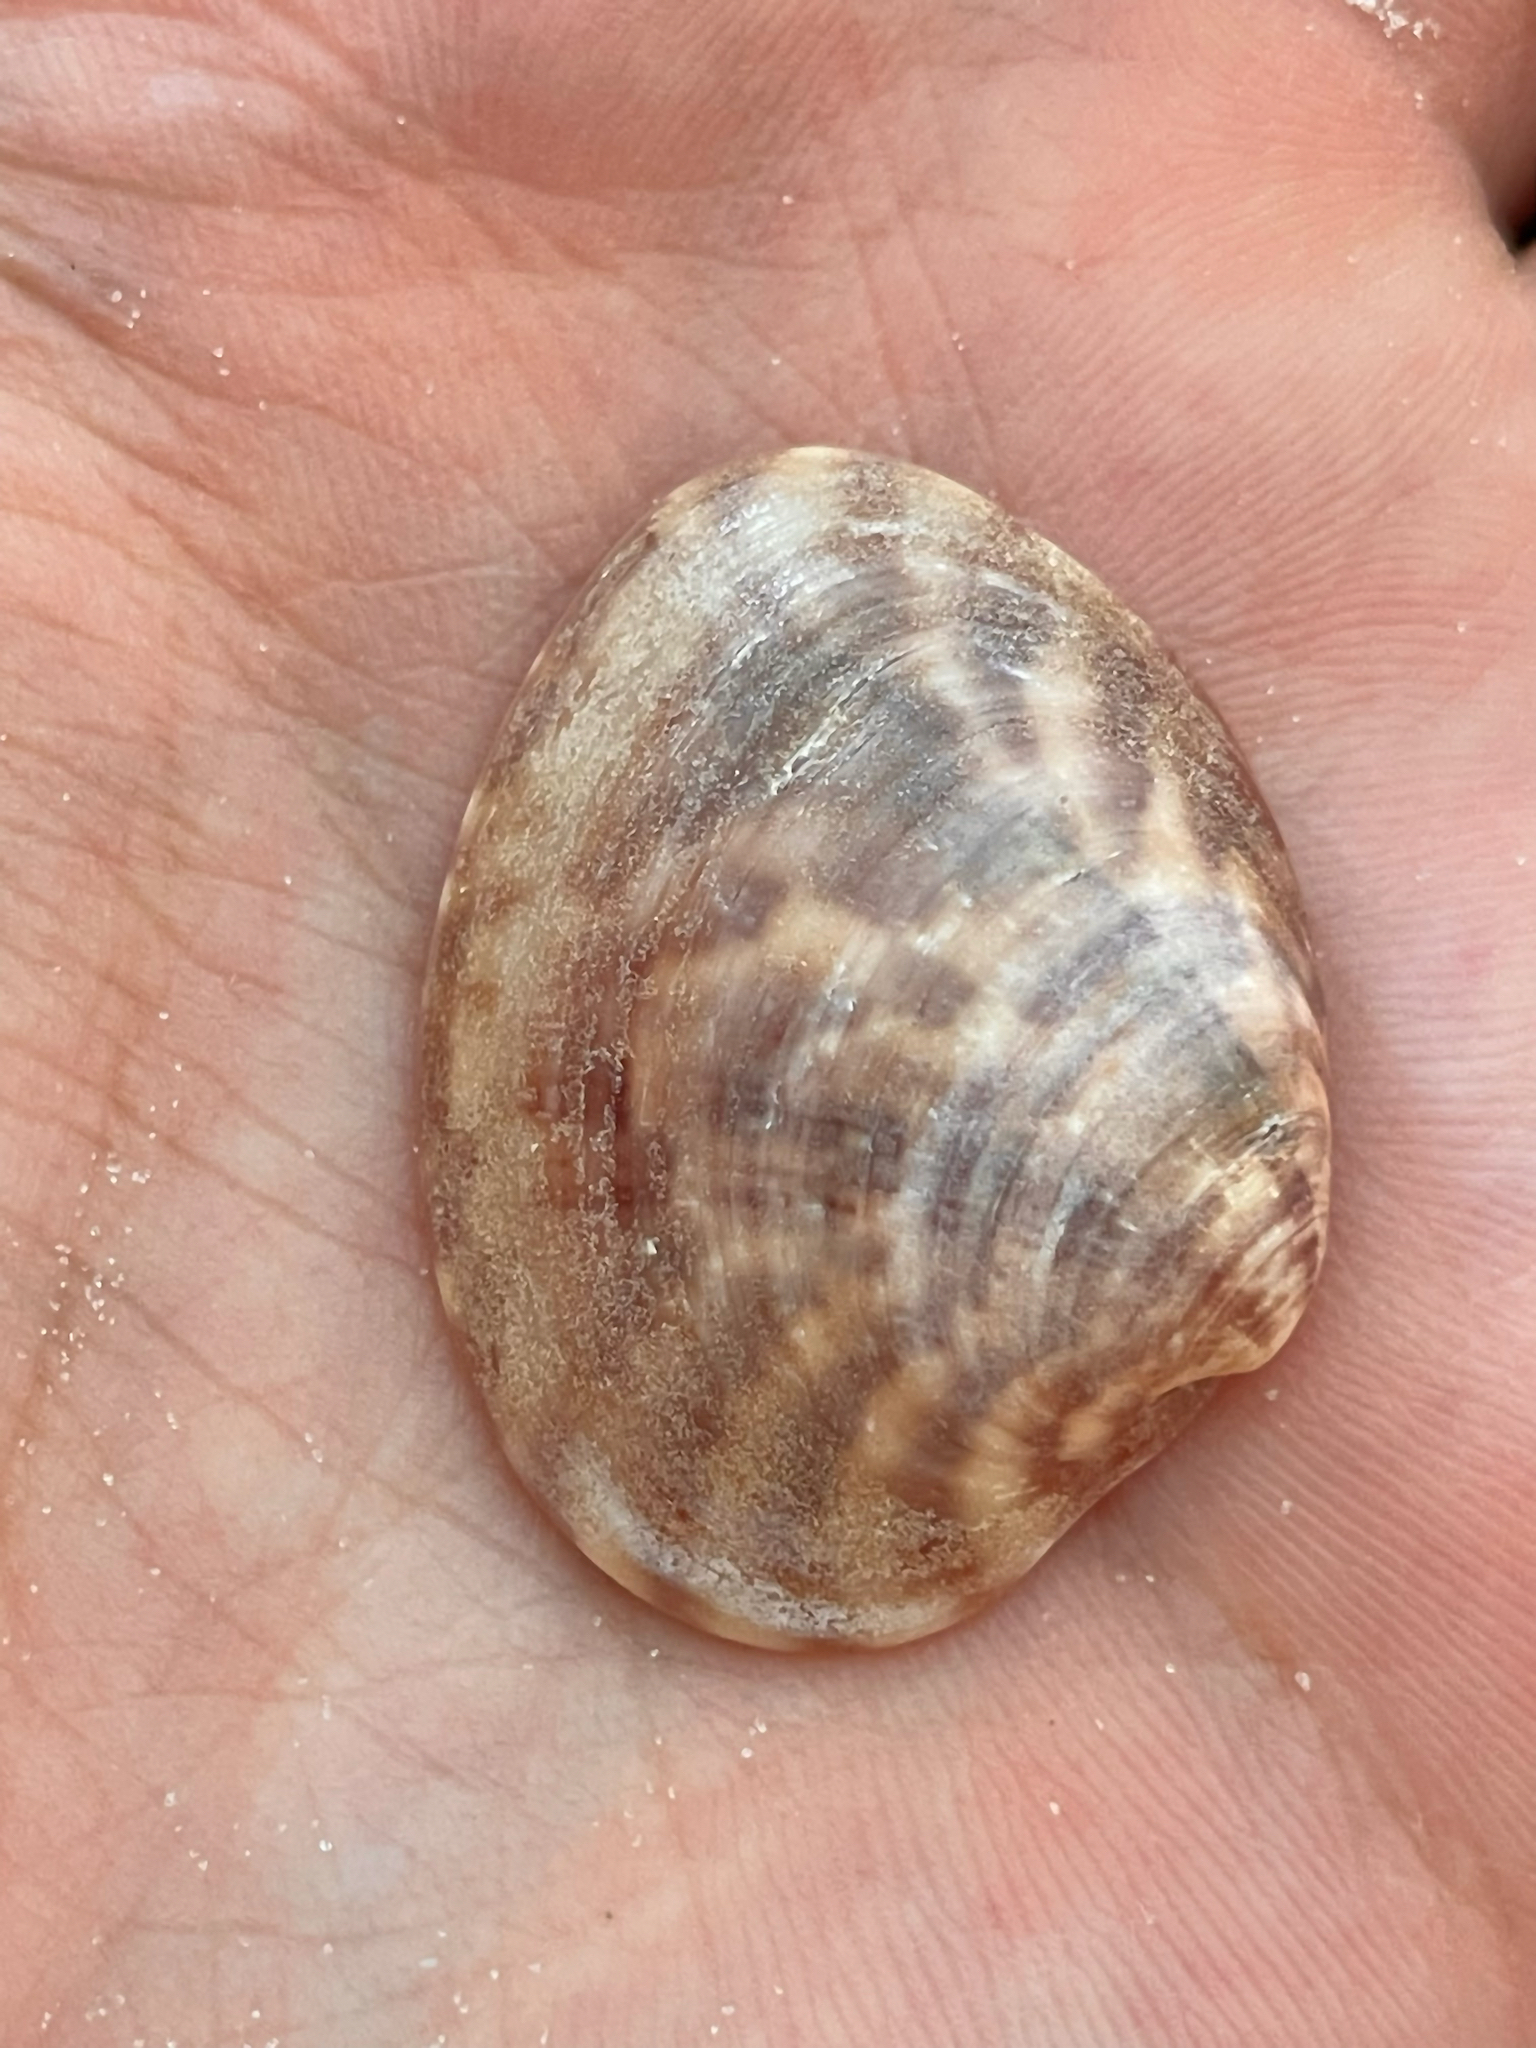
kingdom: Animalia
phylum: Mollusca
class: Bivalvia
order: Venerida
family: Veneridae
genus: Megapitaria
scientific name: Megapitaria maculata
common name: Calico clam
